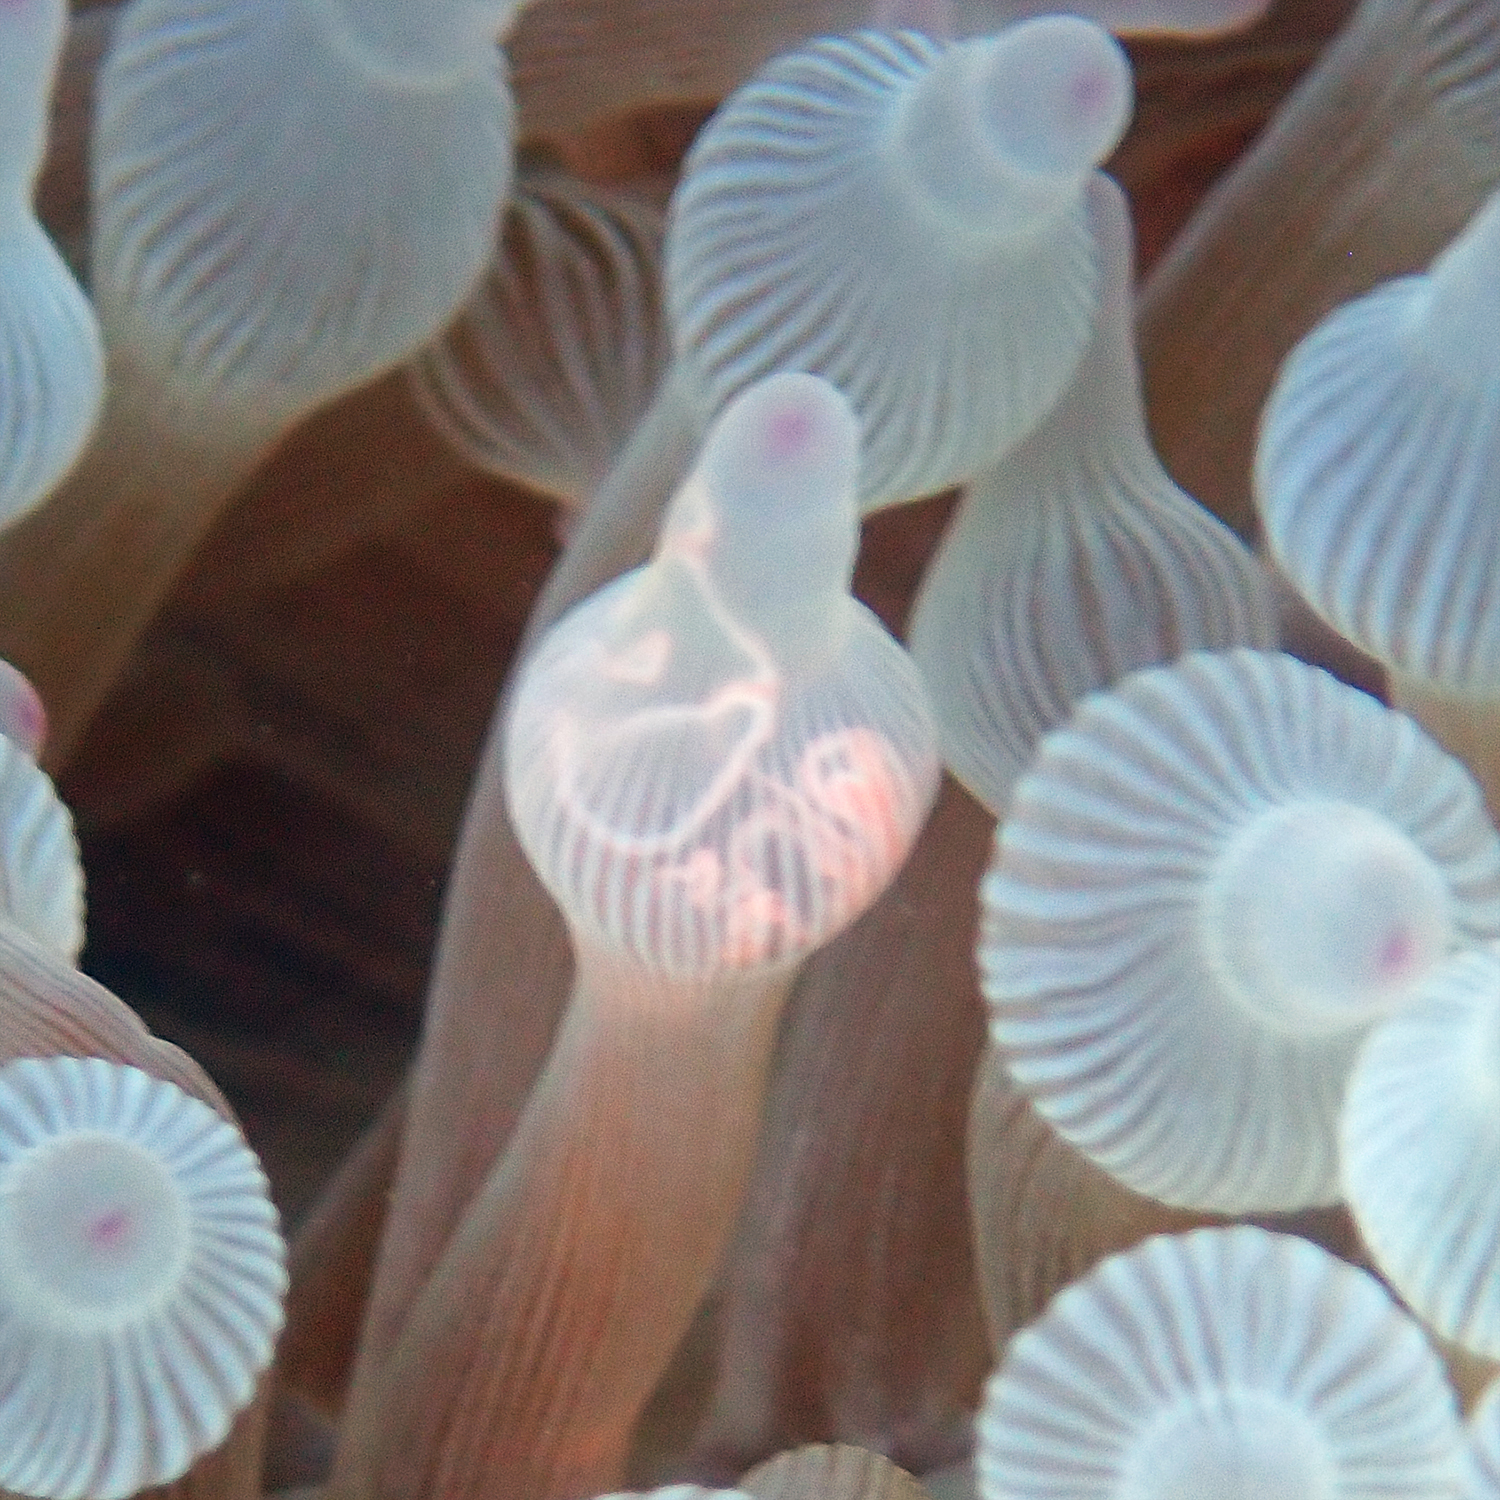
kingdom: Animalia
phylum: Cnidaria
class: Anthozoa
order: Actiniaria
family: Actiniidae
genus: Entacmaea
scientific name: Entacmaea quadricolor
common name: Bulb tentacle sea anemone
